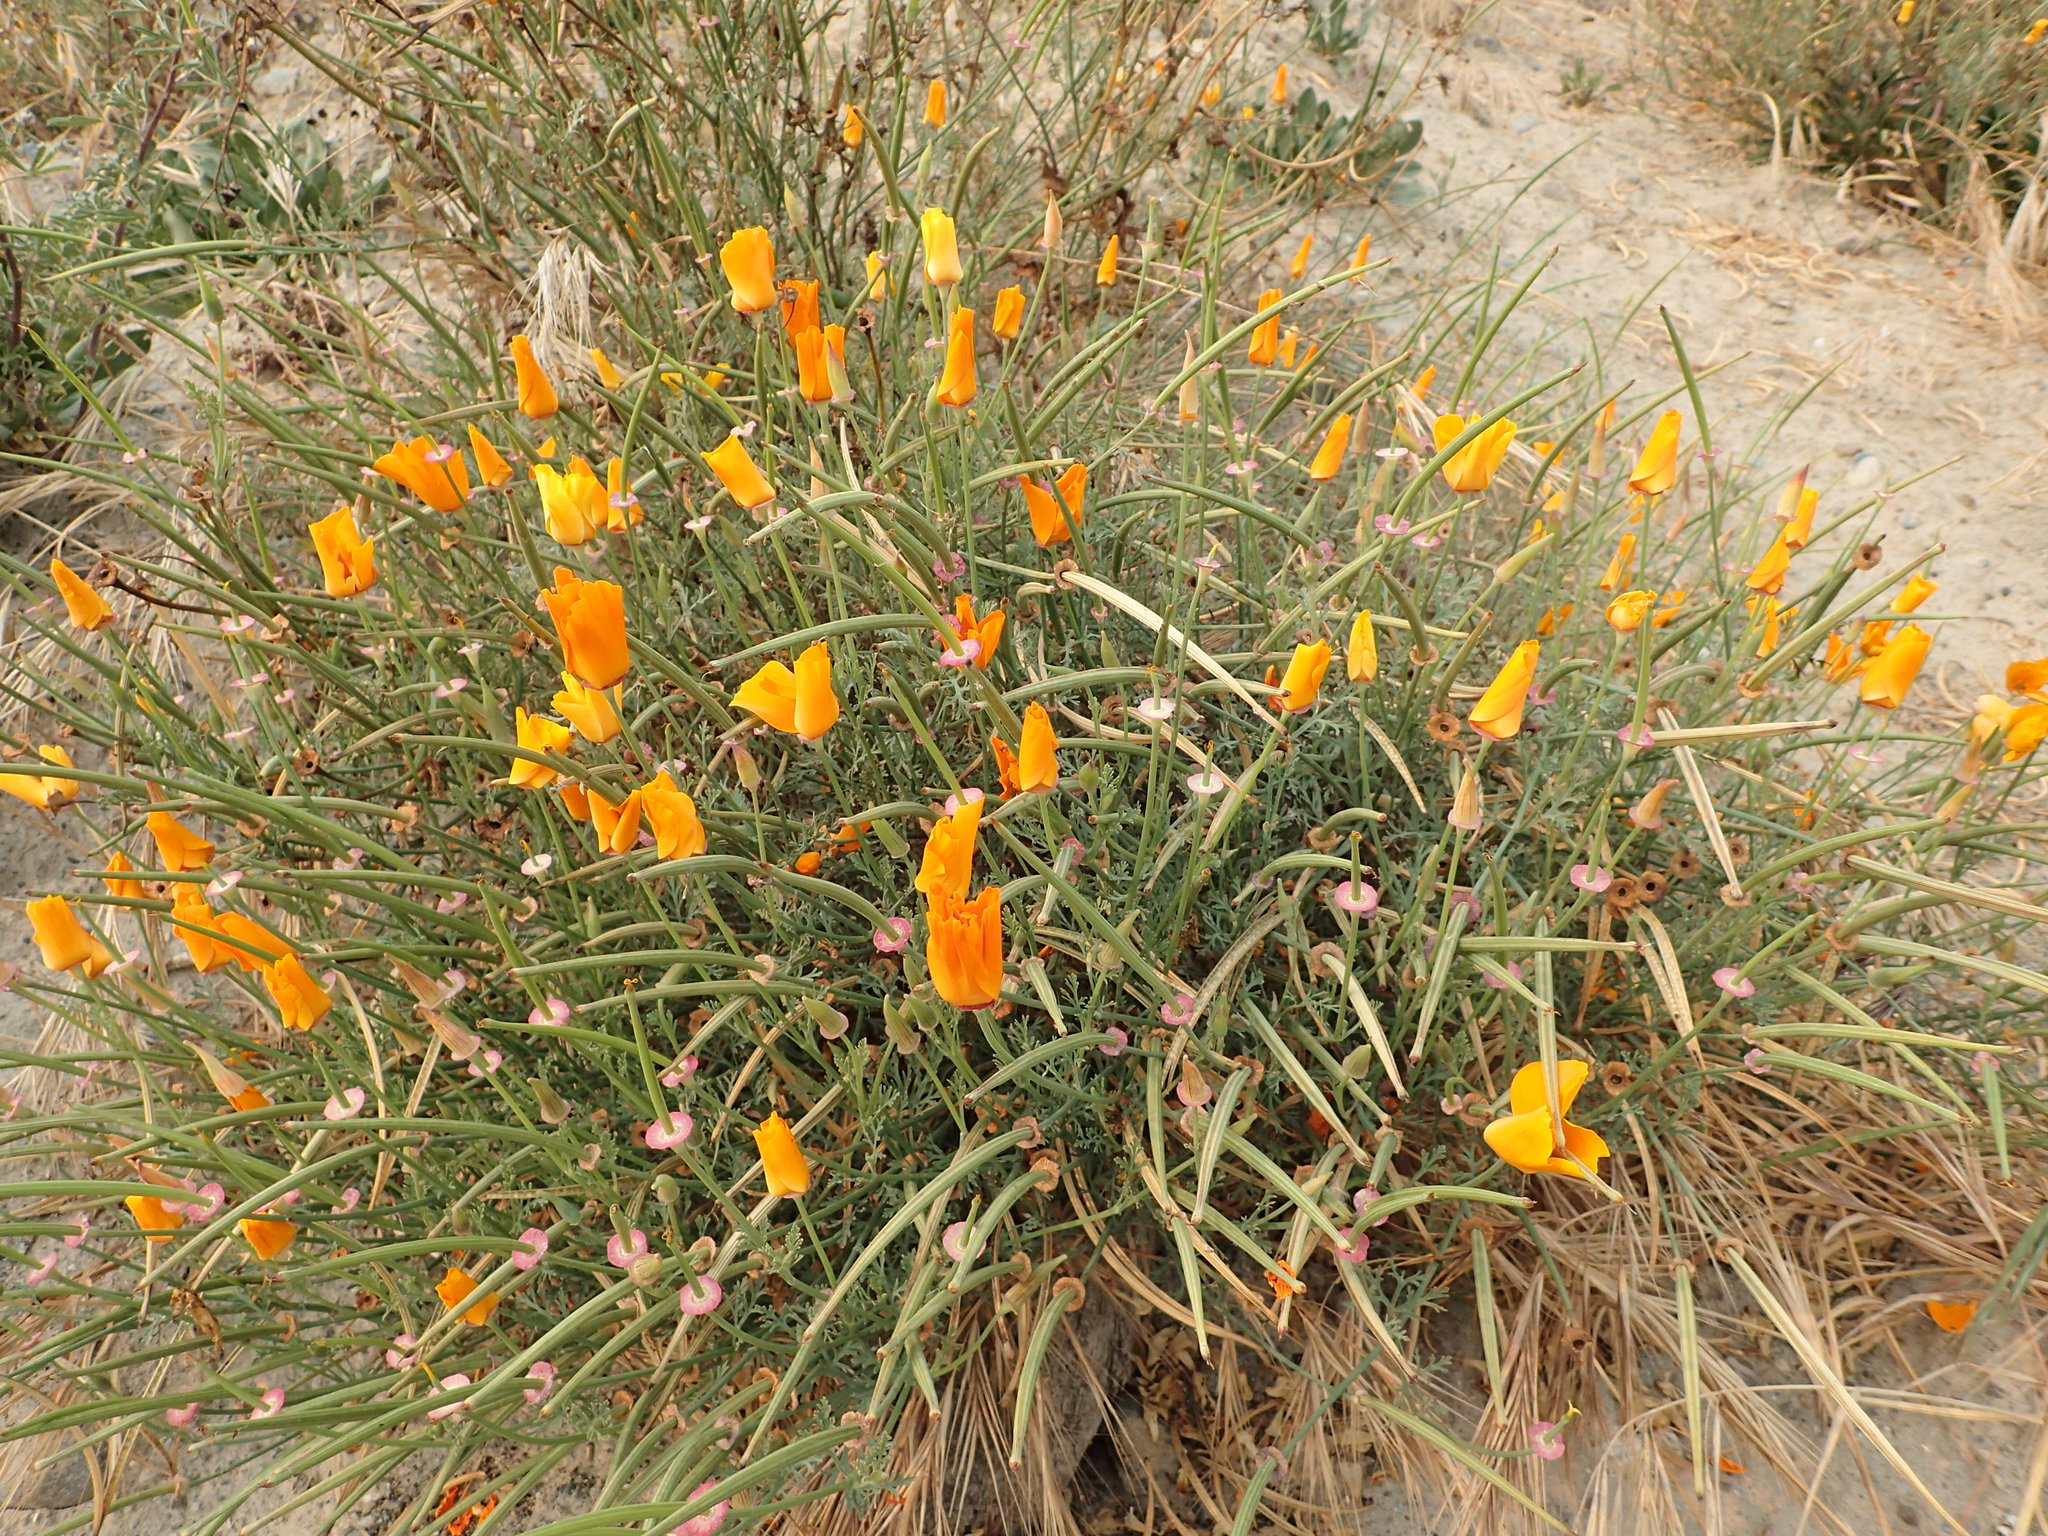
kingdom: Plantae
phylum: Tracheophyta
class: Magnoliopsida
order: Ranunculales
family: Papaveraceae
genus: Eschscholzia
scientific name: Eschscholzia californica
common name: California poppy
